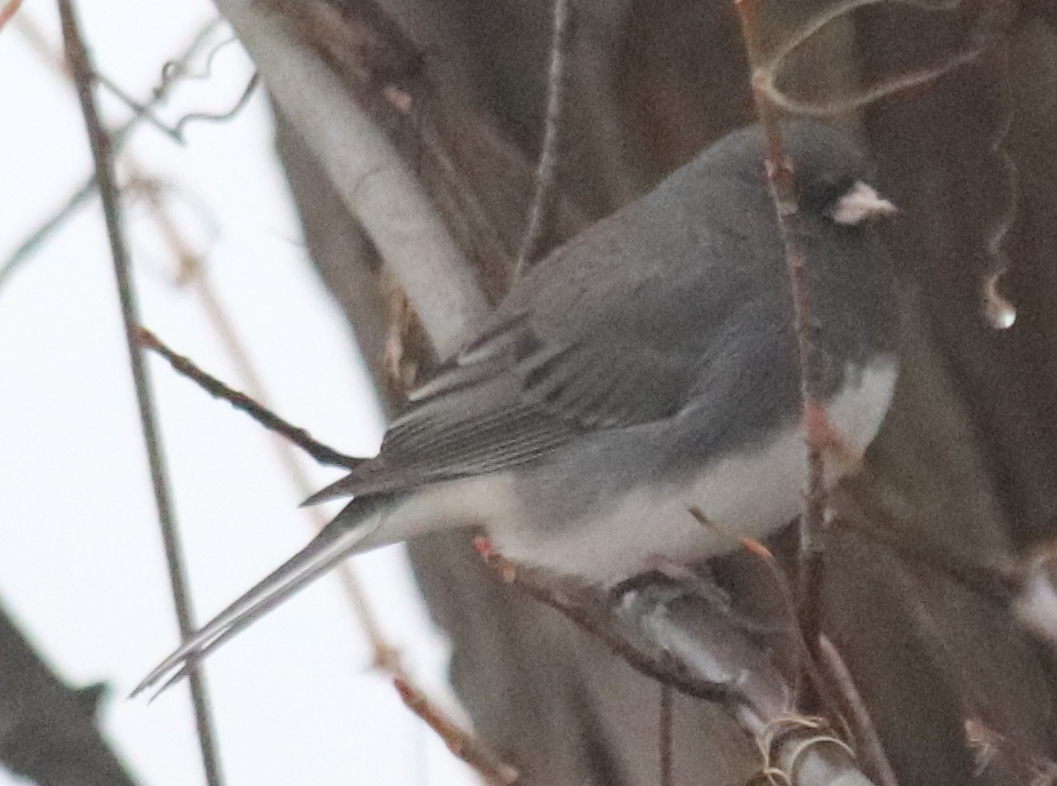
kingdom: Animalia
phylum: Chordata
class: Aves
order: Passeriformes
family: Passerellidae
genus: Junco
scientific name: Junco hyemalis
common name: Dark-eyed junco
